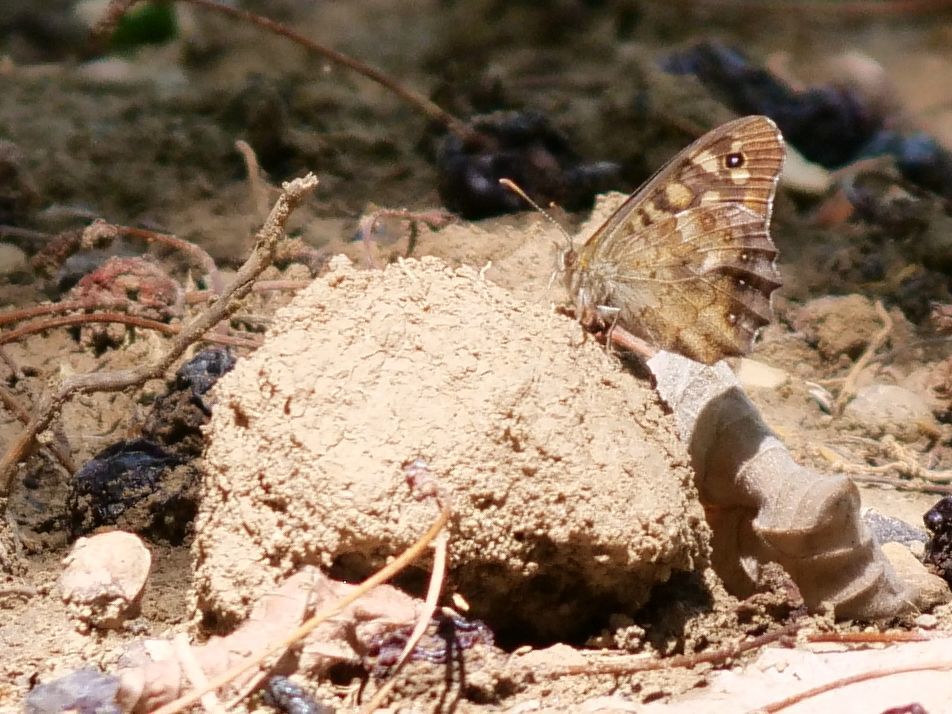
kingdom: Animalia
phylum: Arthropoda
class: Insecta
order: Lepidoptera
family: Nymphalidae
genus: Pararge
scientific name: Pararge aegeria
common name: Speckled wood
